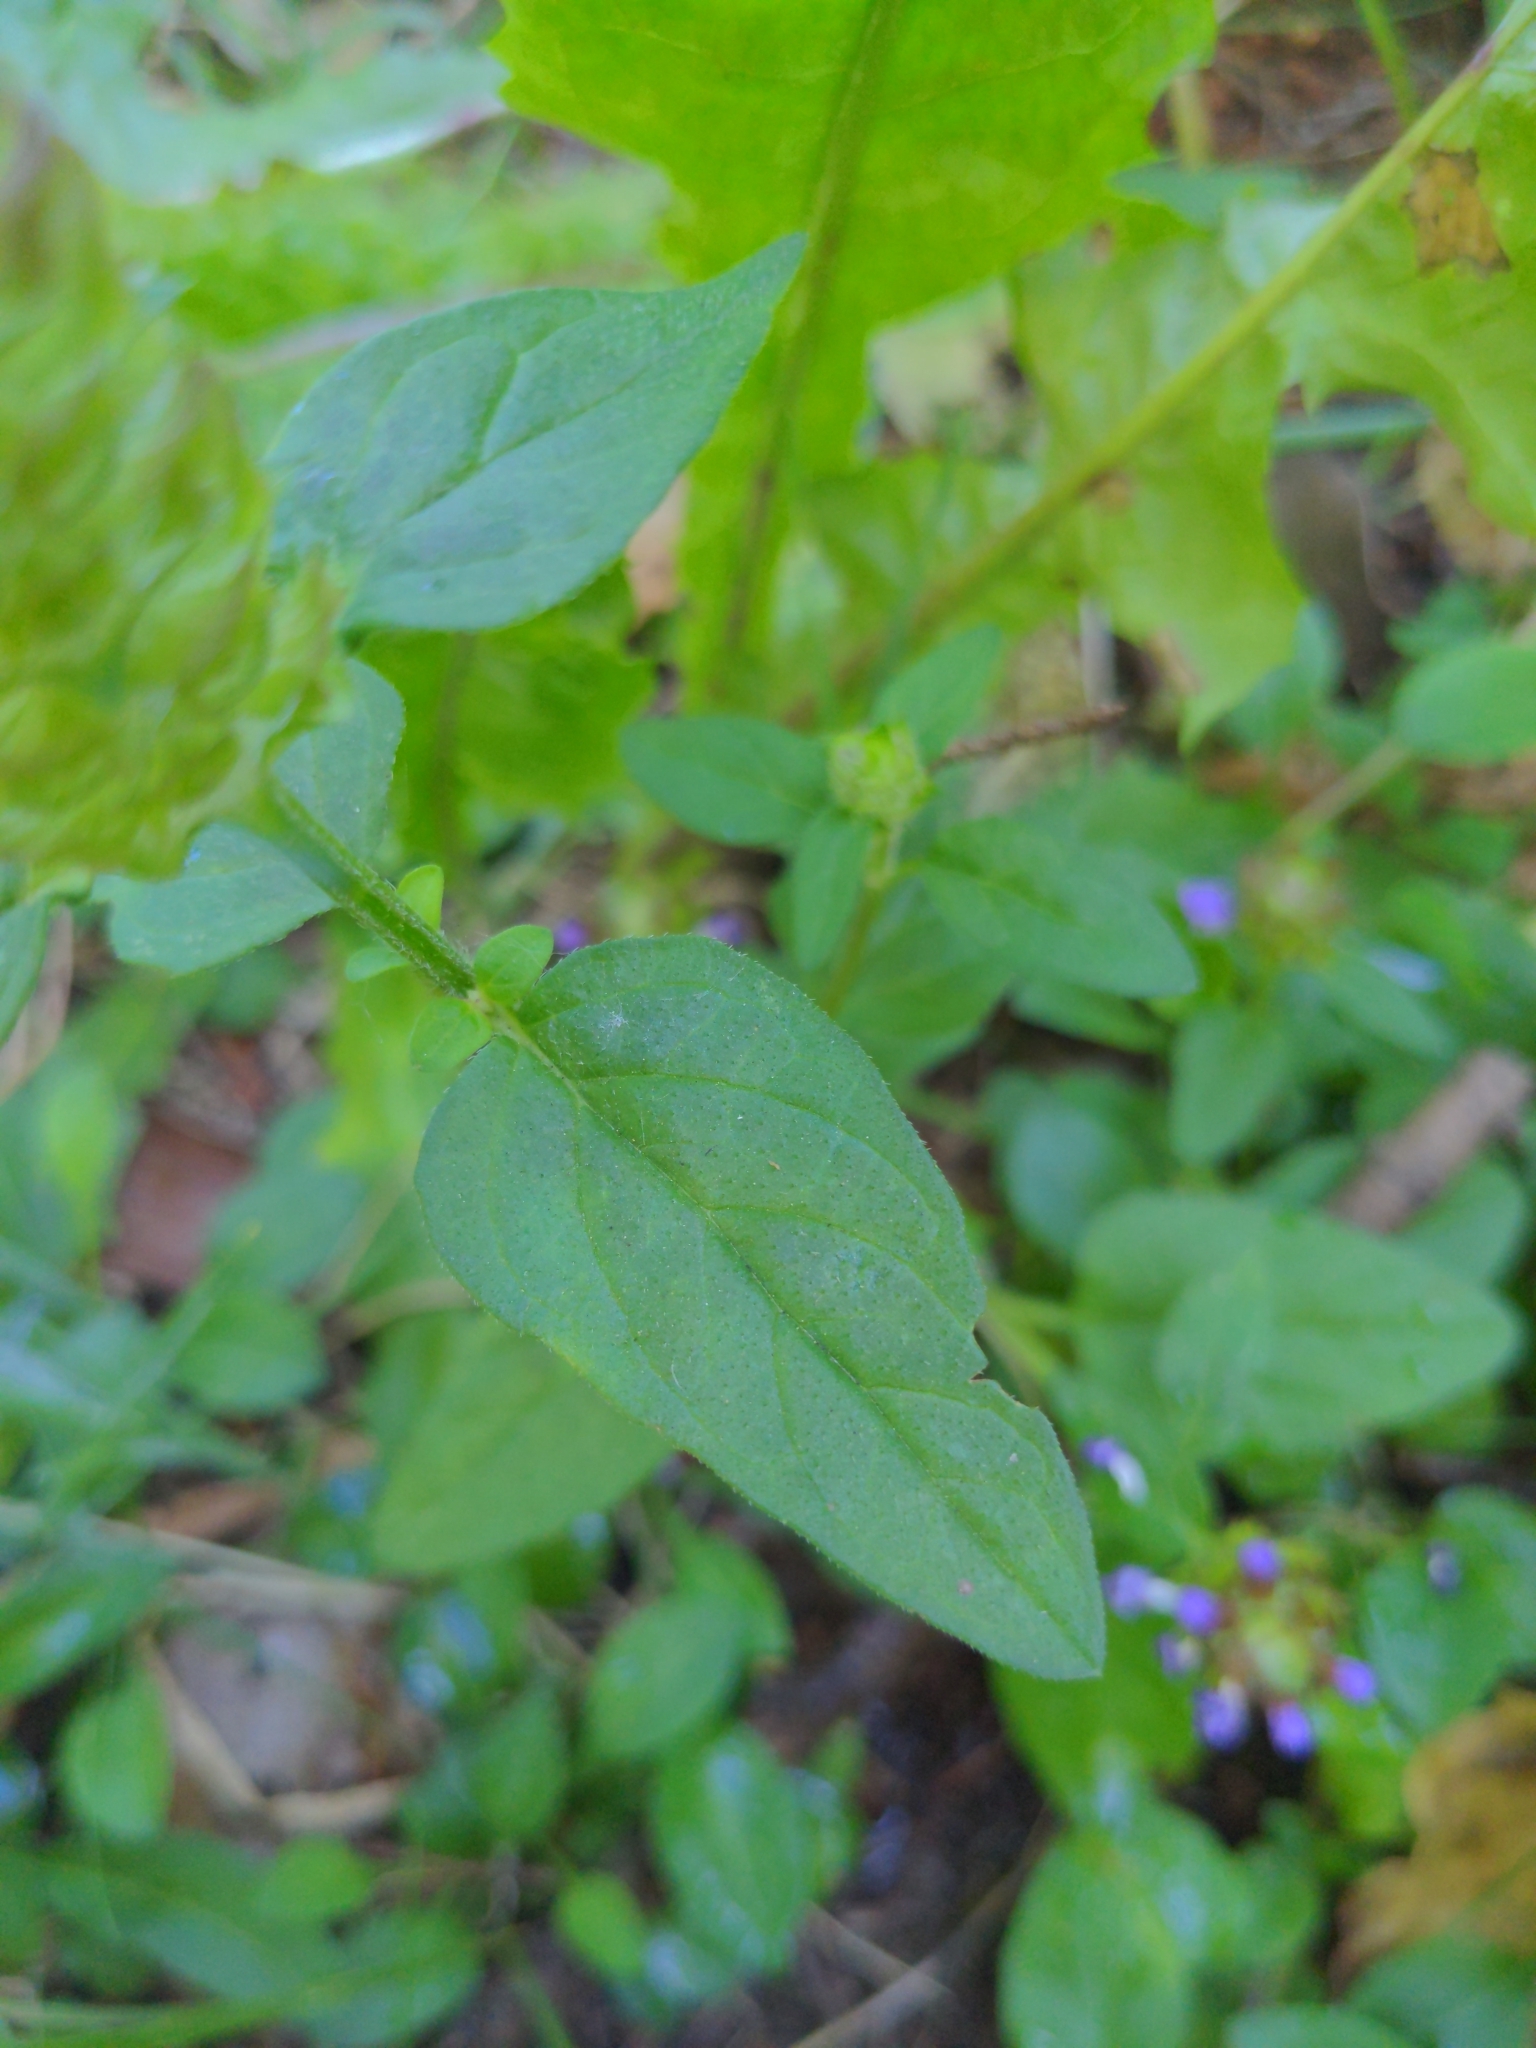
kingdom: Plantae
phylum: Tracheophyta
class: Magnoliopsida
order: Lamiales
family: Lamiaceae
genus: Prunella
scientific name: Prunella vulgaris
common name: Heal-all
